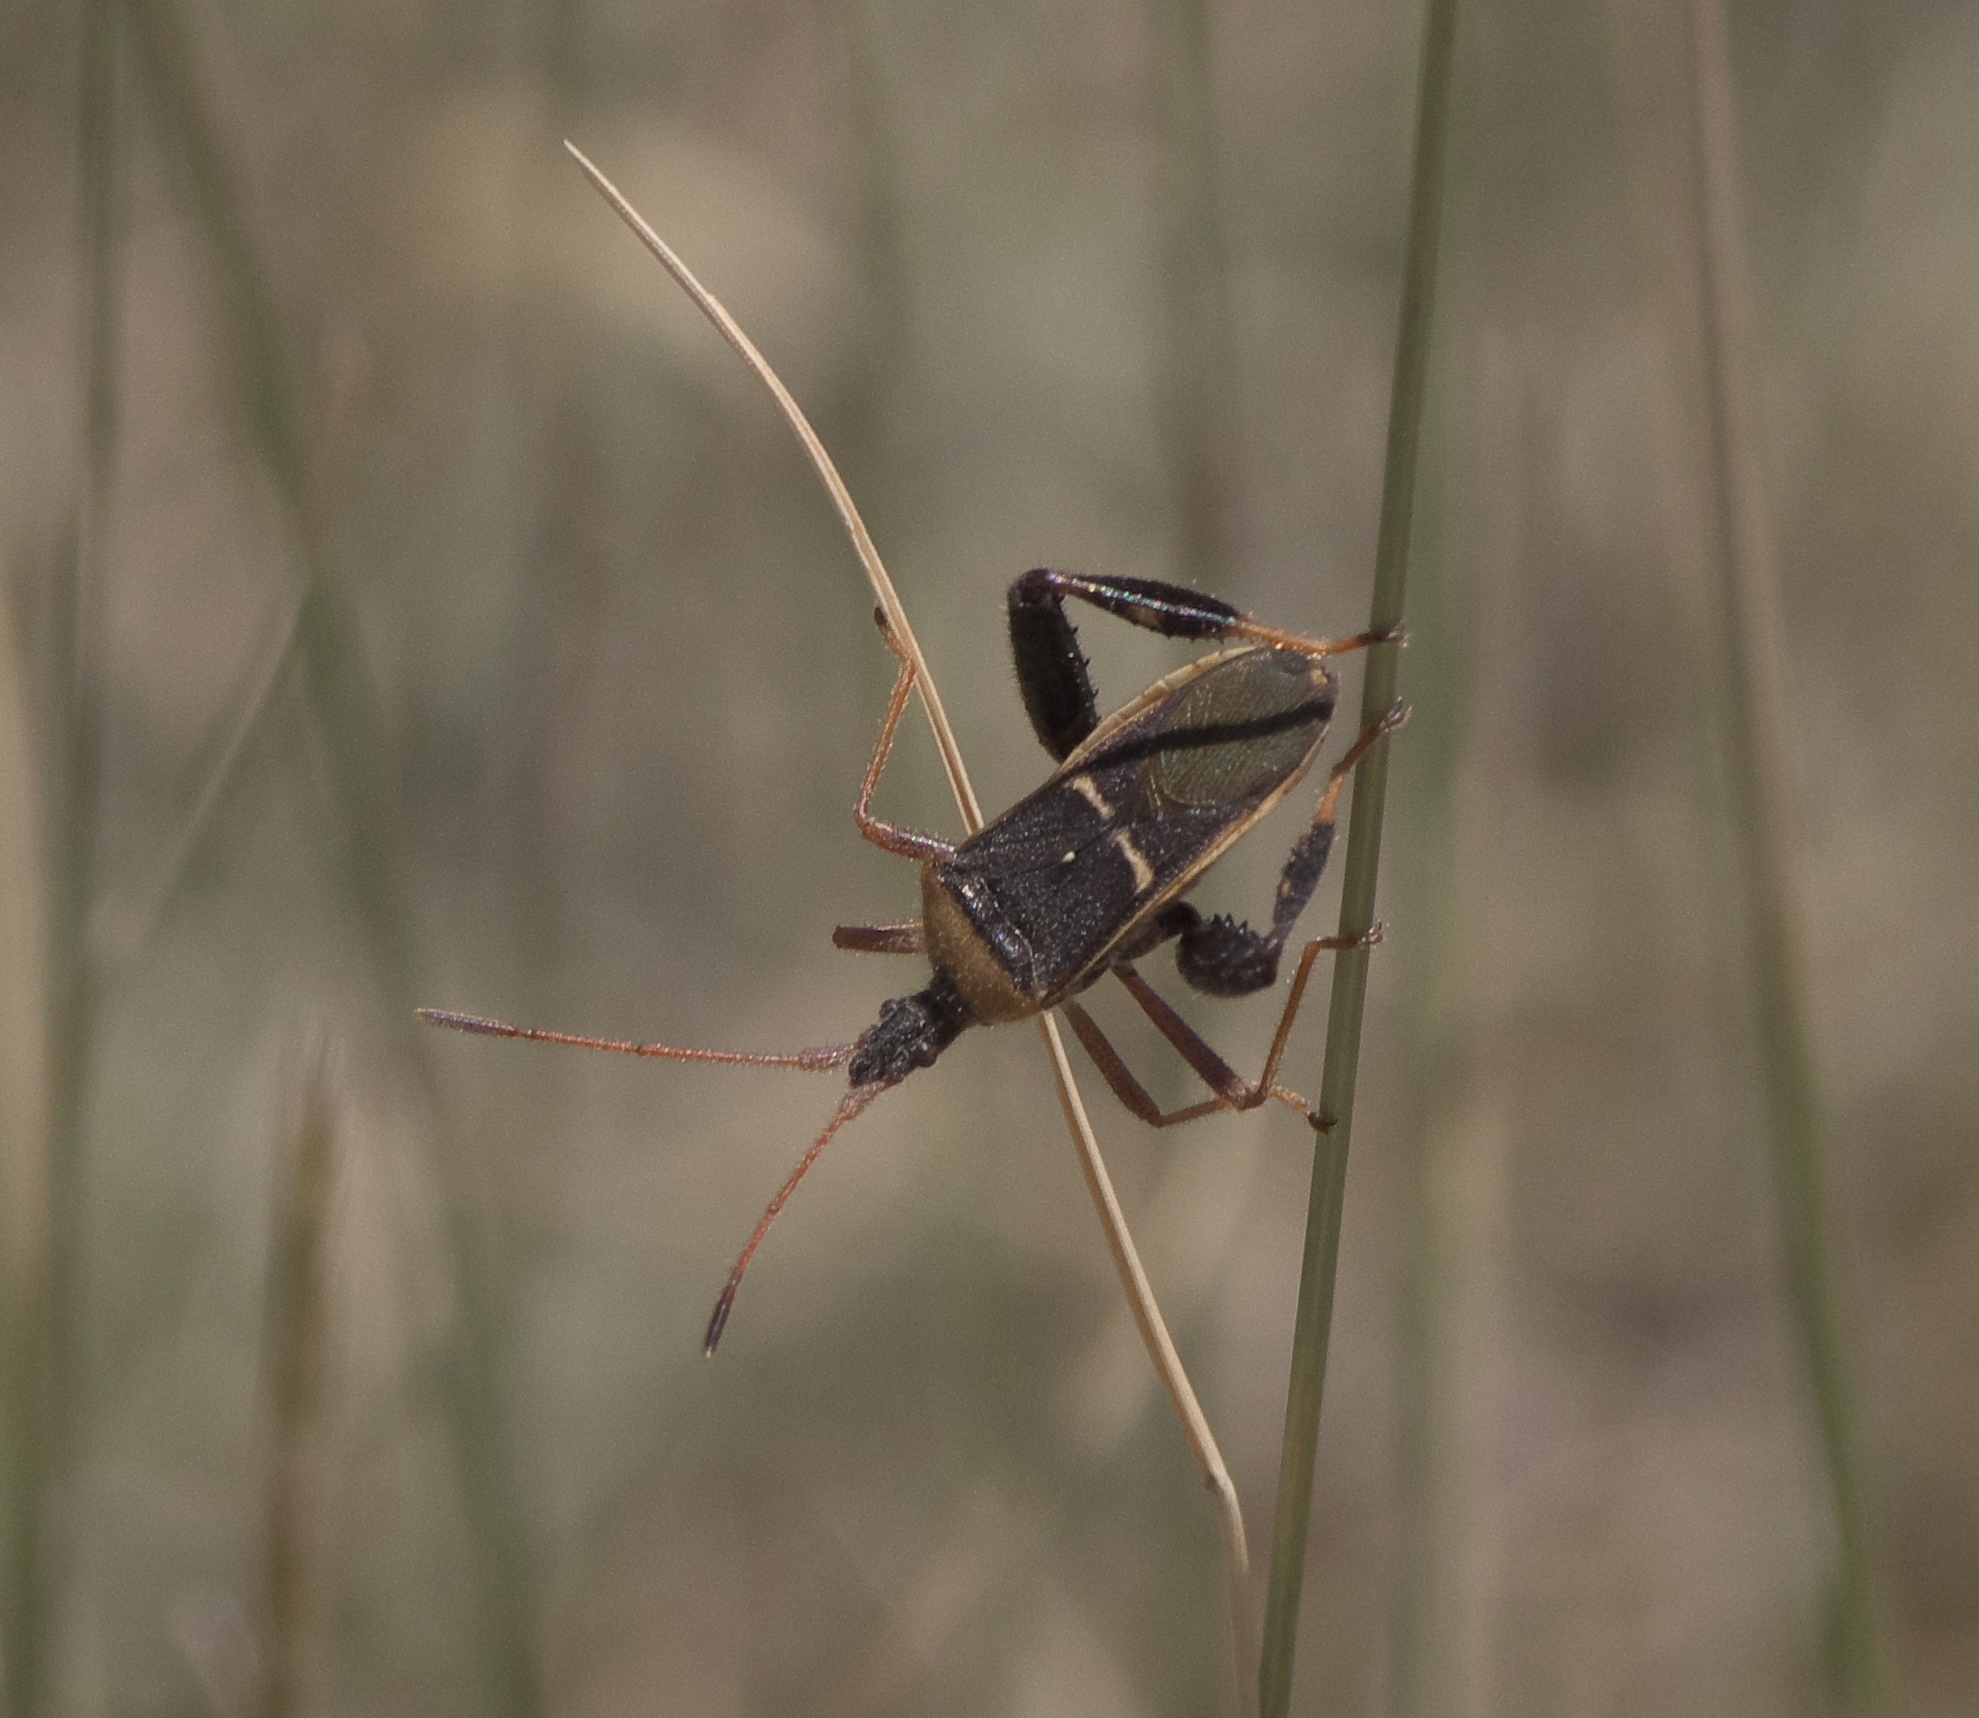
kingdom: Animalia
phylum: Arthropoda
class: Insecta
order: Hemiptera
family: Coreidae
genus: Narnia
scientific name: Narnia snowi
